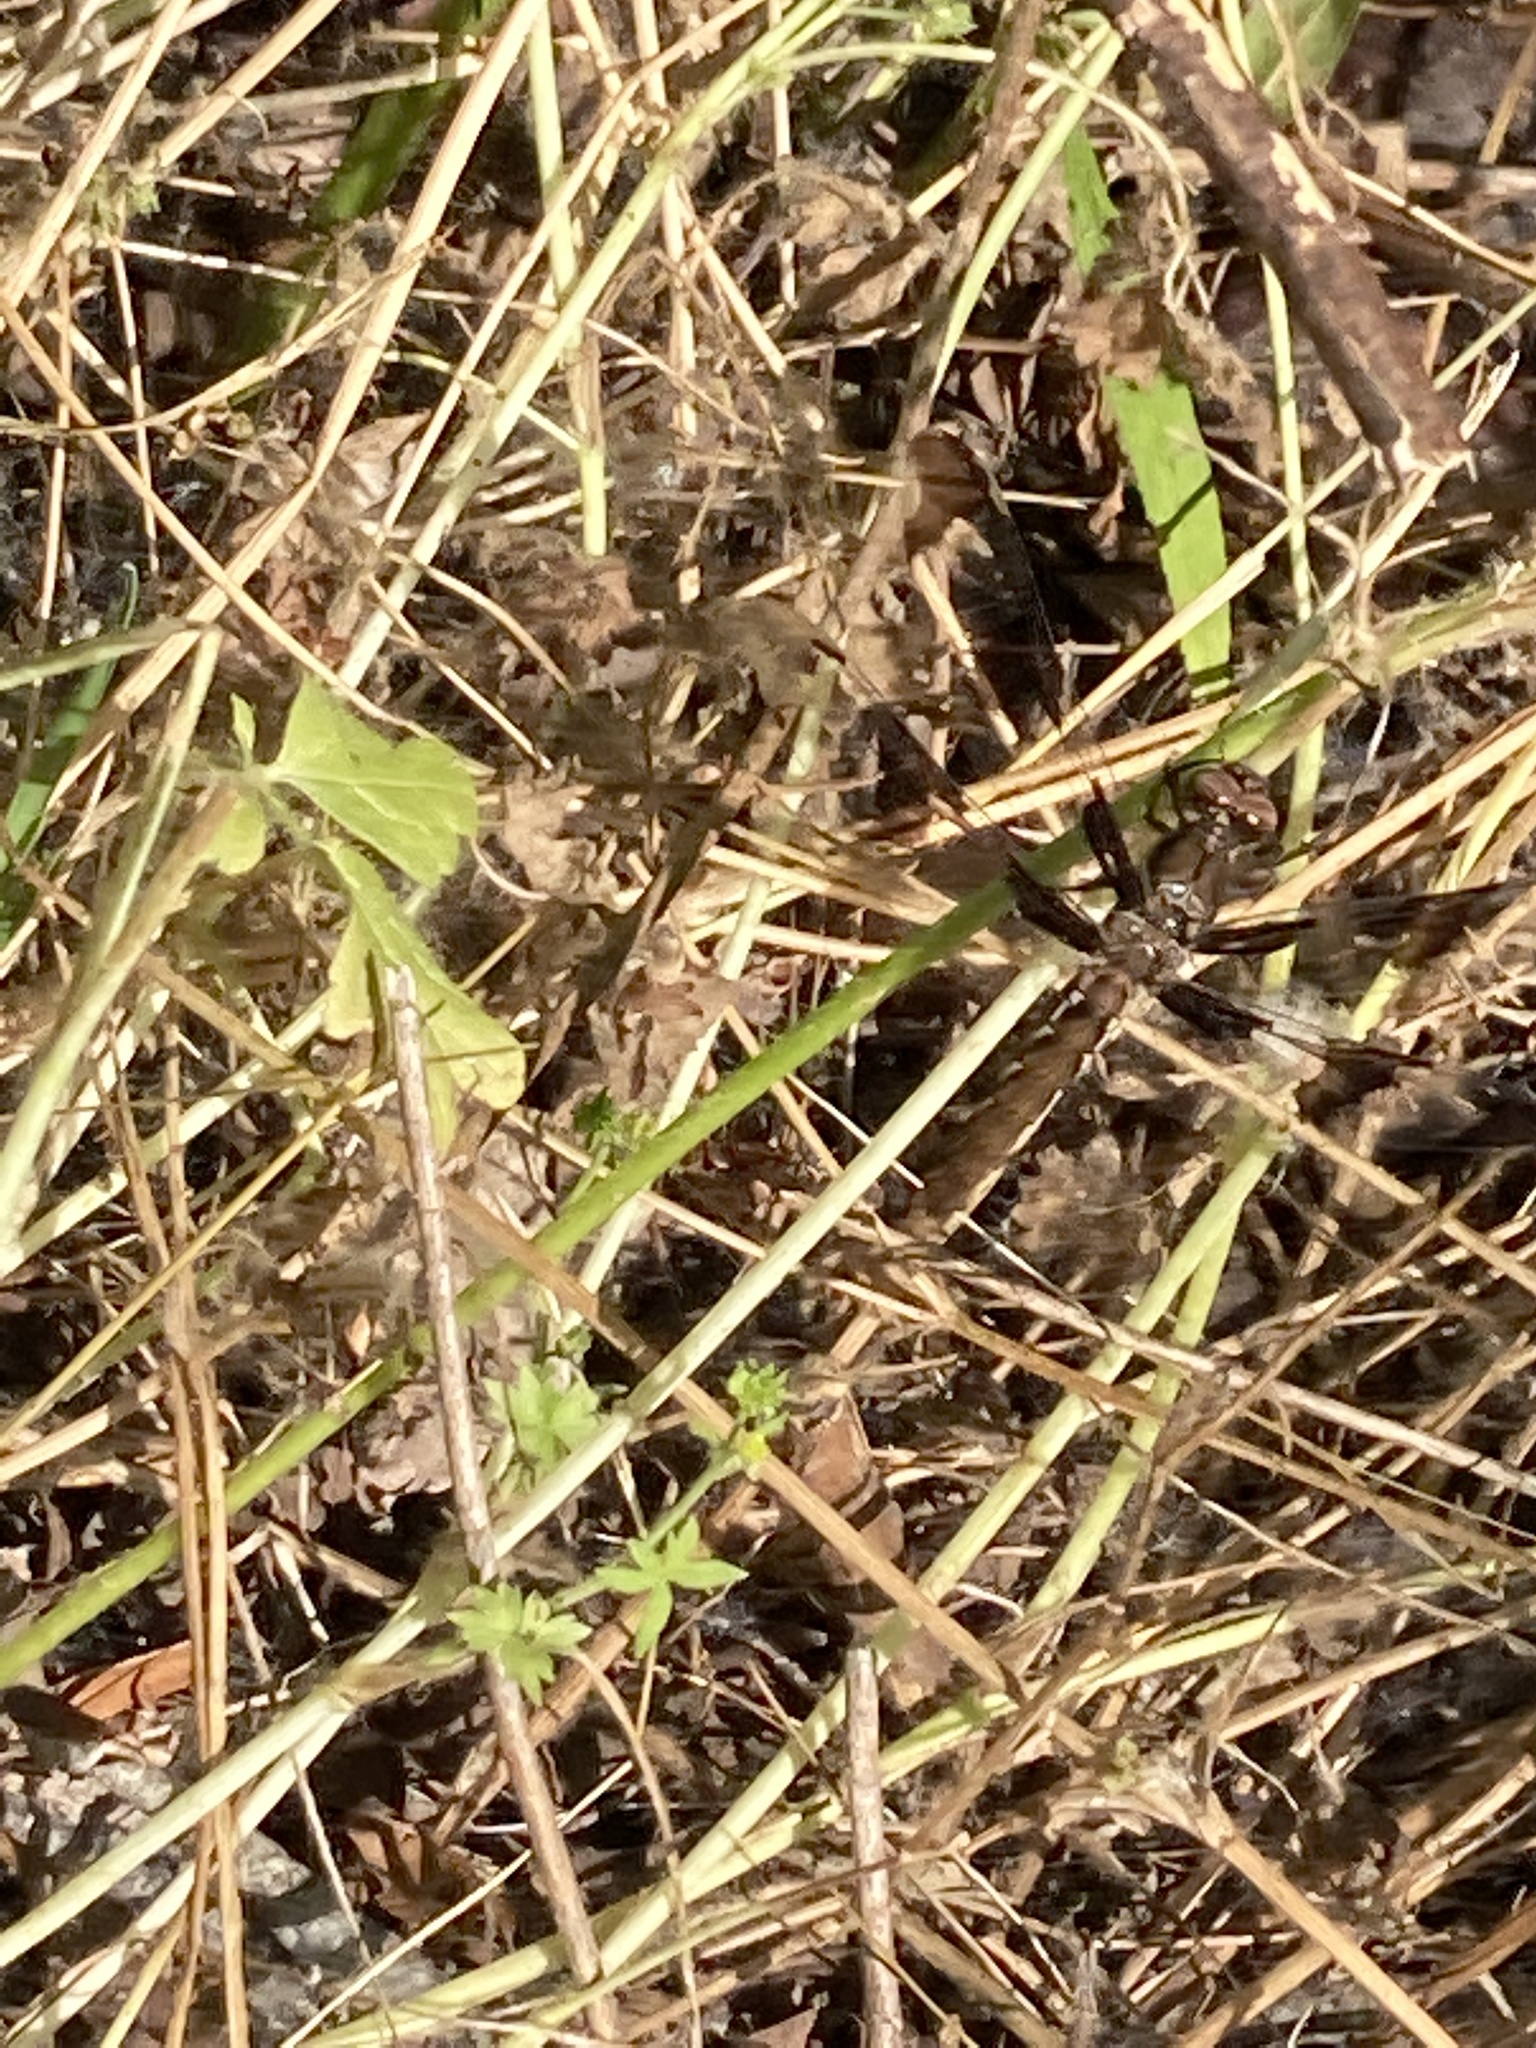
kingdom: Animalia
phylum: Arthropoda
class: Insecta
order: Odonata
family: Libellulidae
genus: Plathemis
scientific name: Plathemis lydia
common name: Common whitetail
